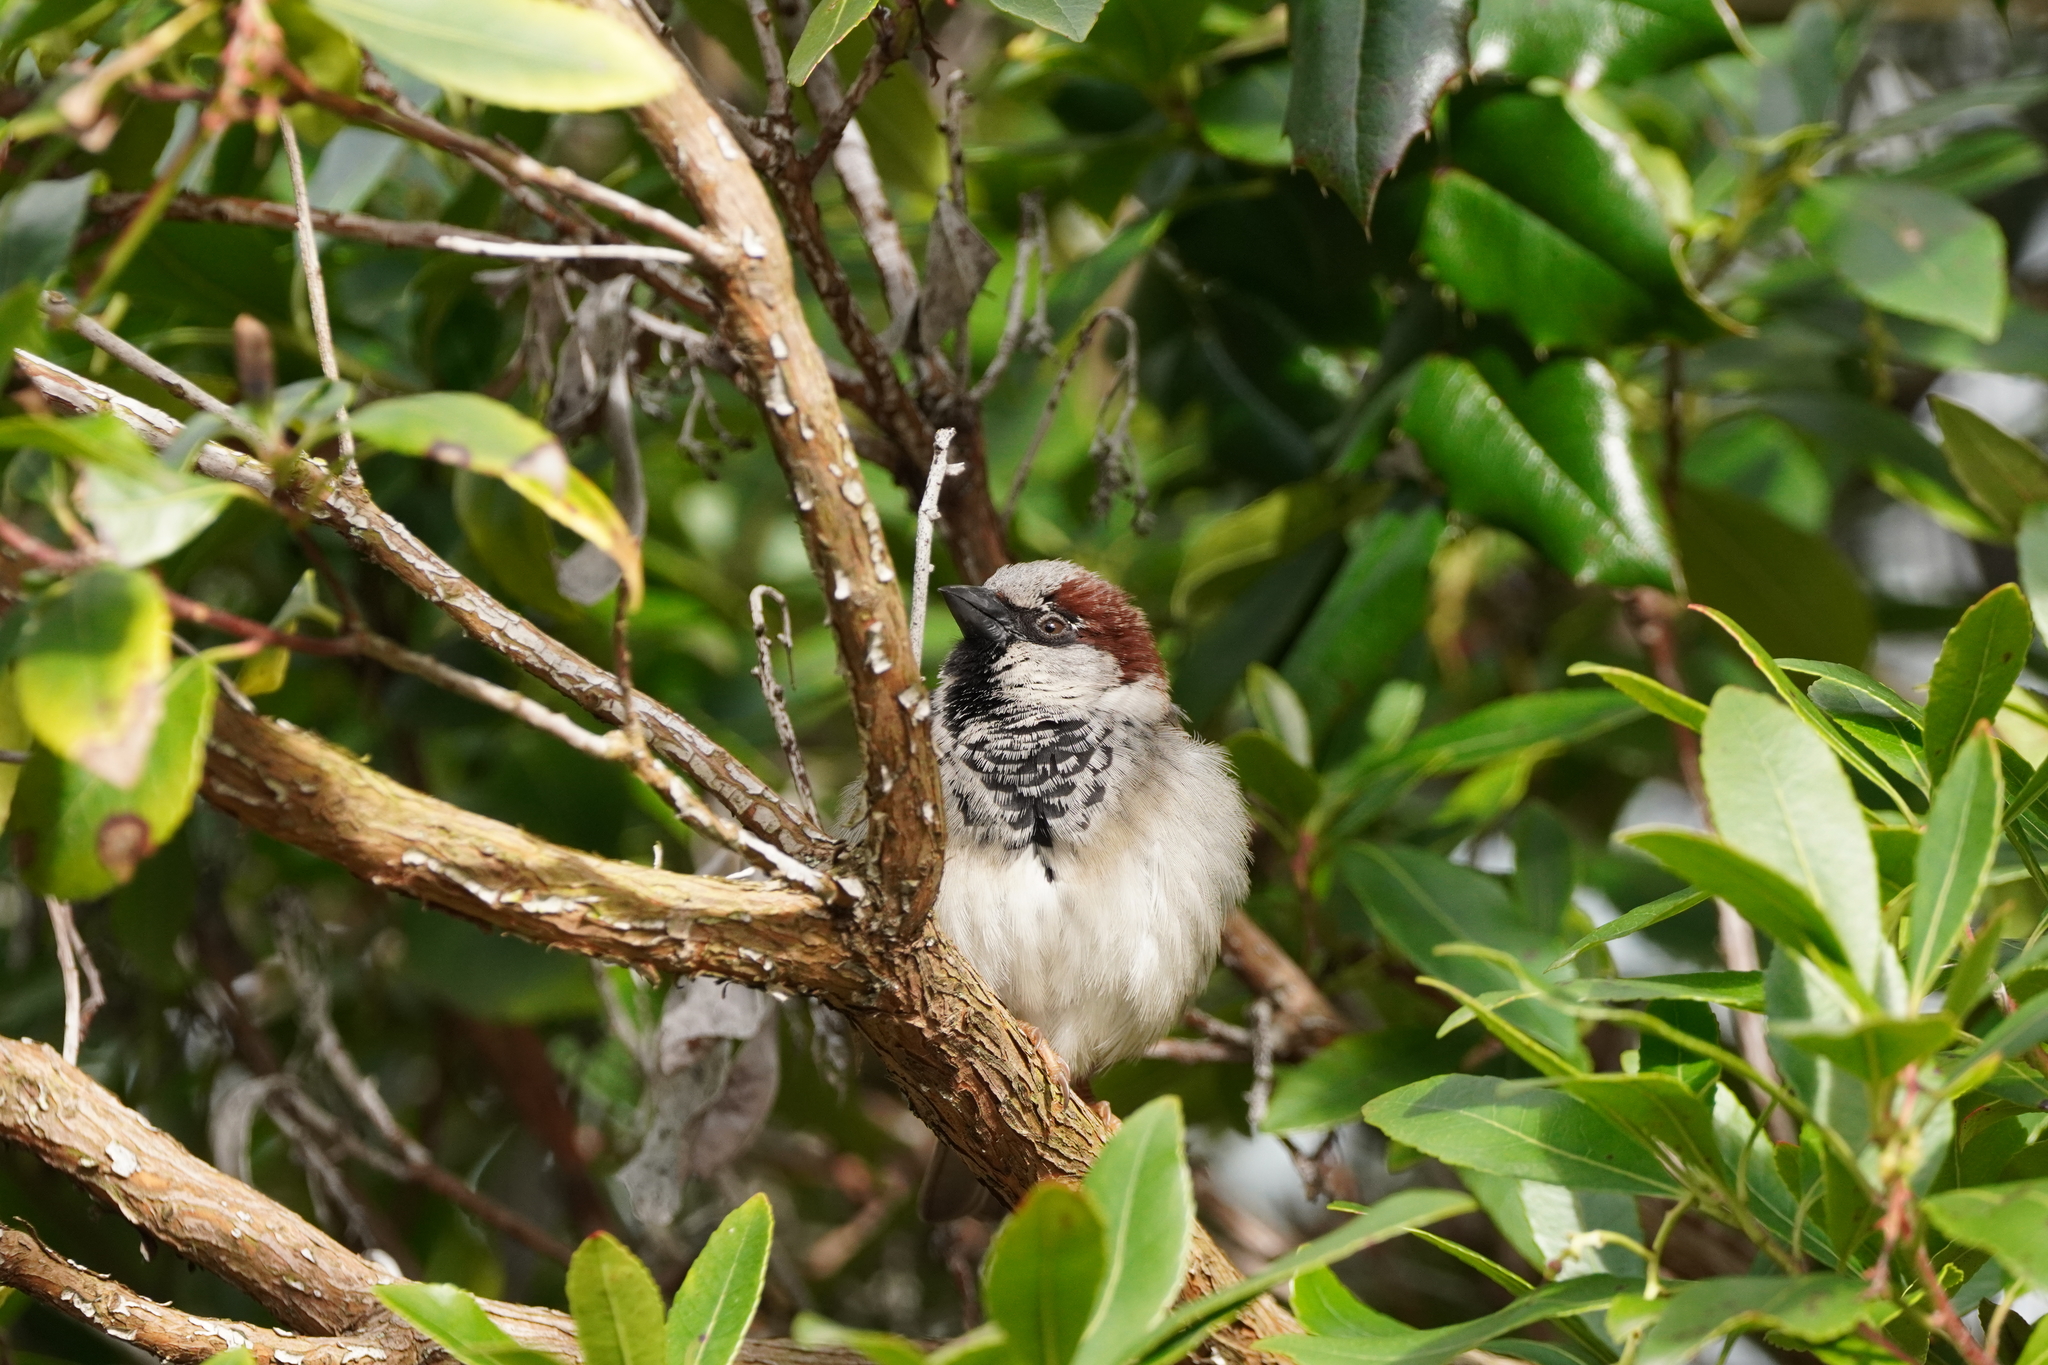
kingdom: Animalia
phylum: Chordata
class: Aves
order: Passeriformes
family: Passeridae
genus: Passer
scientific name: Passer domesticus
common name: House sparrow
